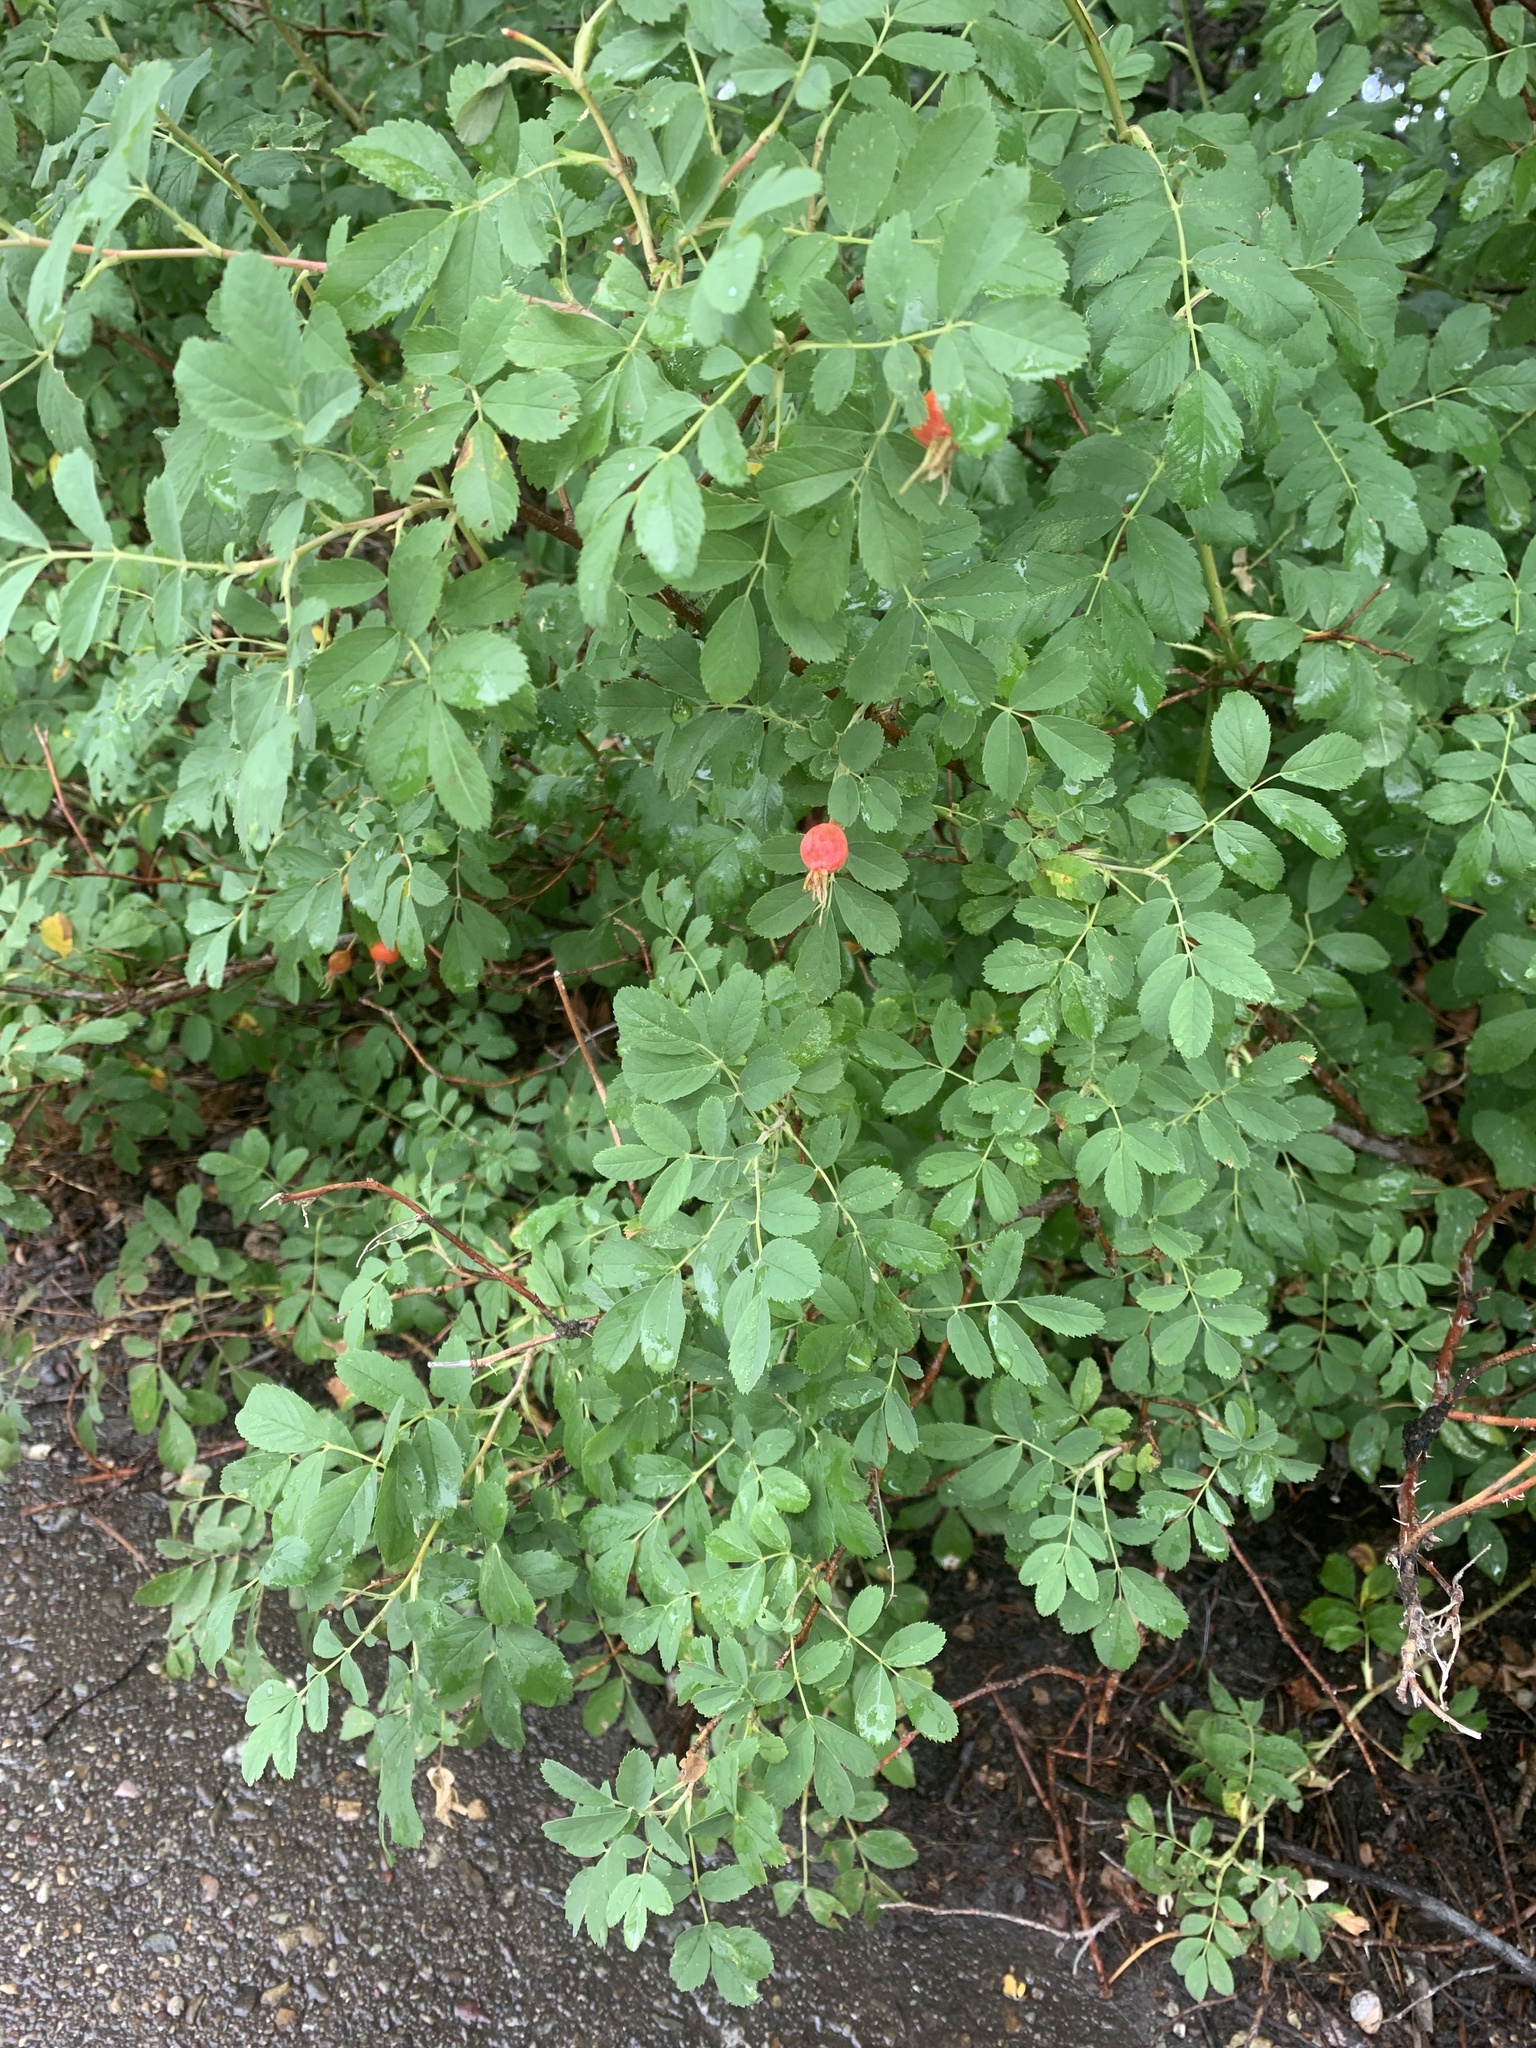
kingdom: Plantae
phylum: Tracheophyta
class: Magnoliopsida
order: Rosales
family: Rosaceae
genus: Rosa
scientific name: Rosa woodsii
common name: Woods's rose
